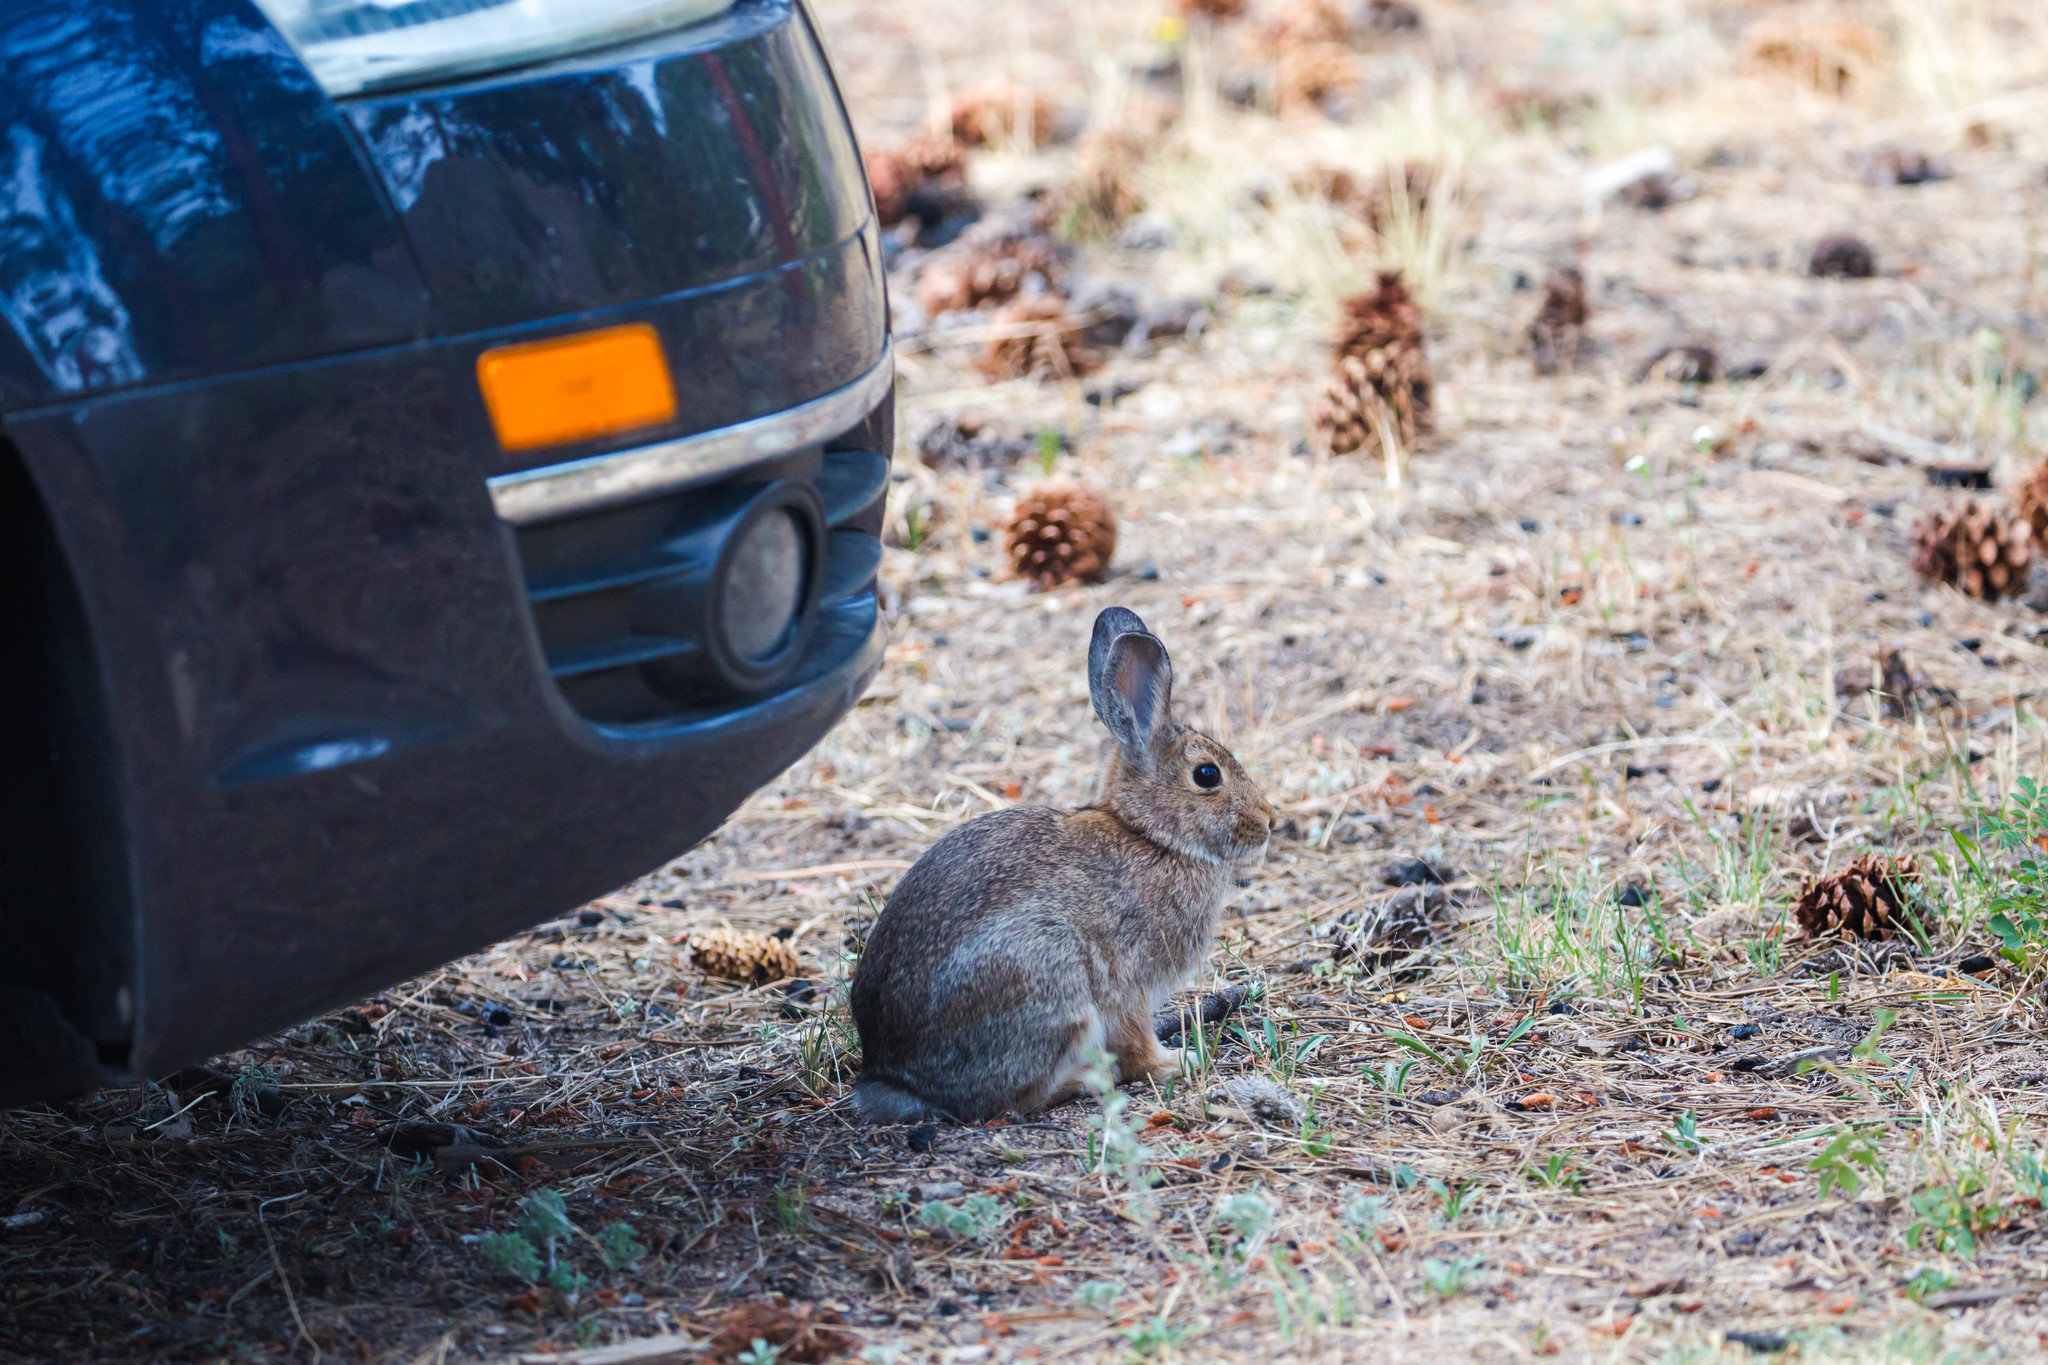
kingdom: Animalia
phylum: Chordata
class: Mammalia
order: Lagomorpha
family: Leporidae
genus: Sylvilagus
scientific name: Sylvilagus nuttallii
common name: Mountain cottontail
